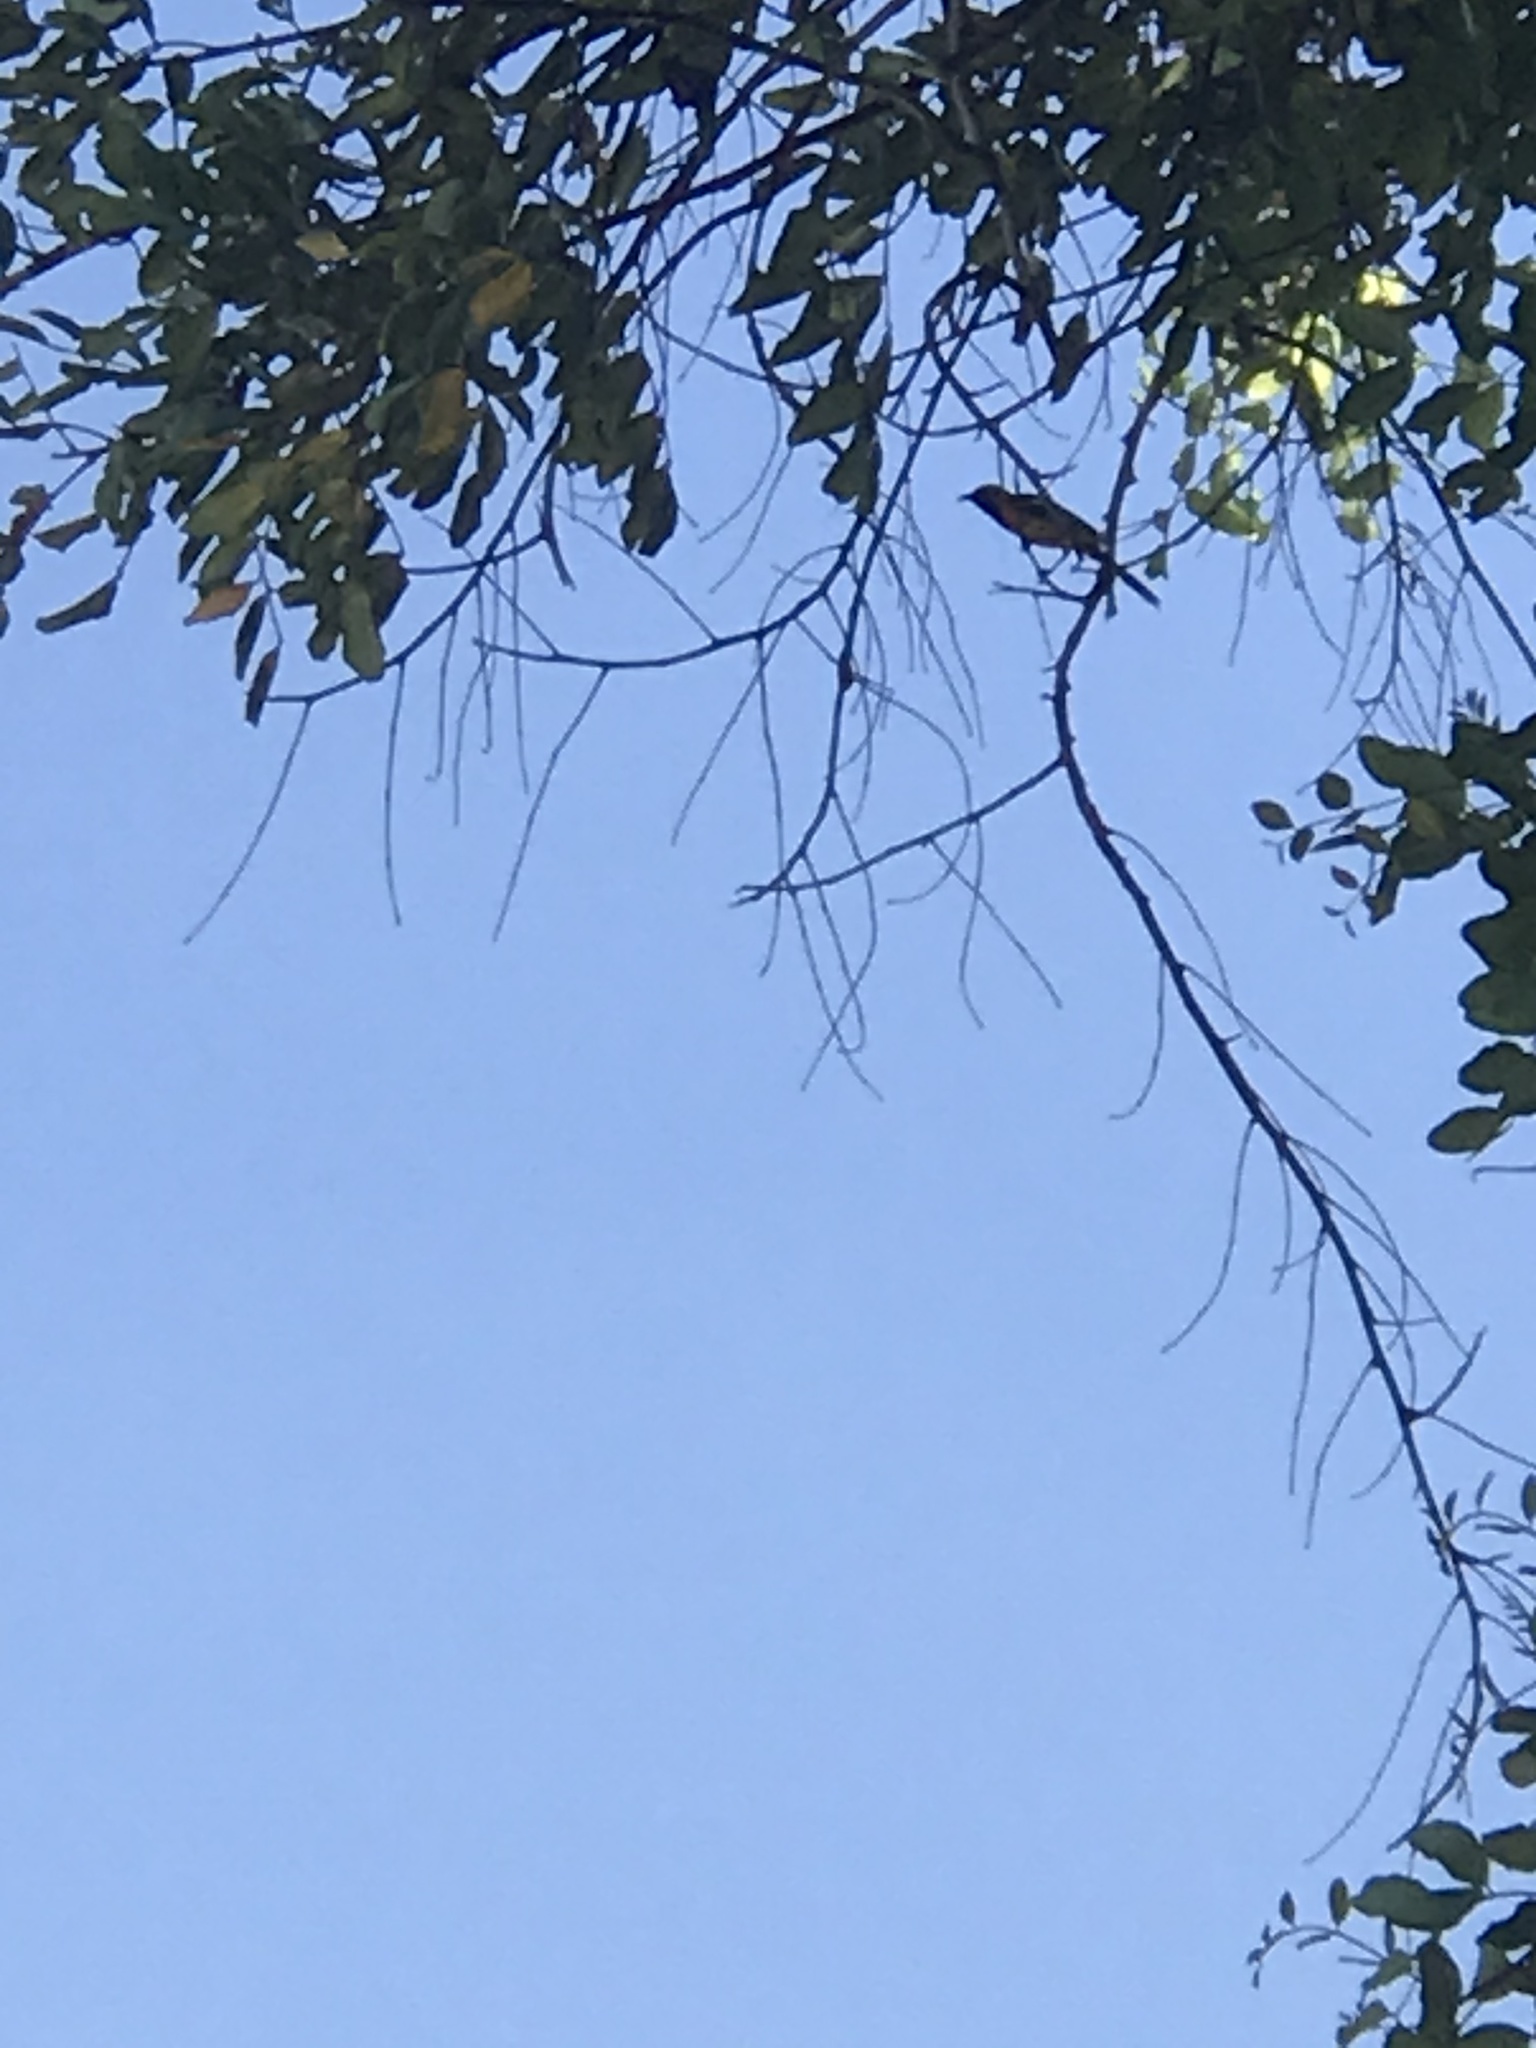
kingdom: Animalia
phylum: Chordata
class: Aves
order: Passeriformes
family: Icteridae
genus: Icterus
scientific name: Icterus cucullatus
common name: Hooded oriole
